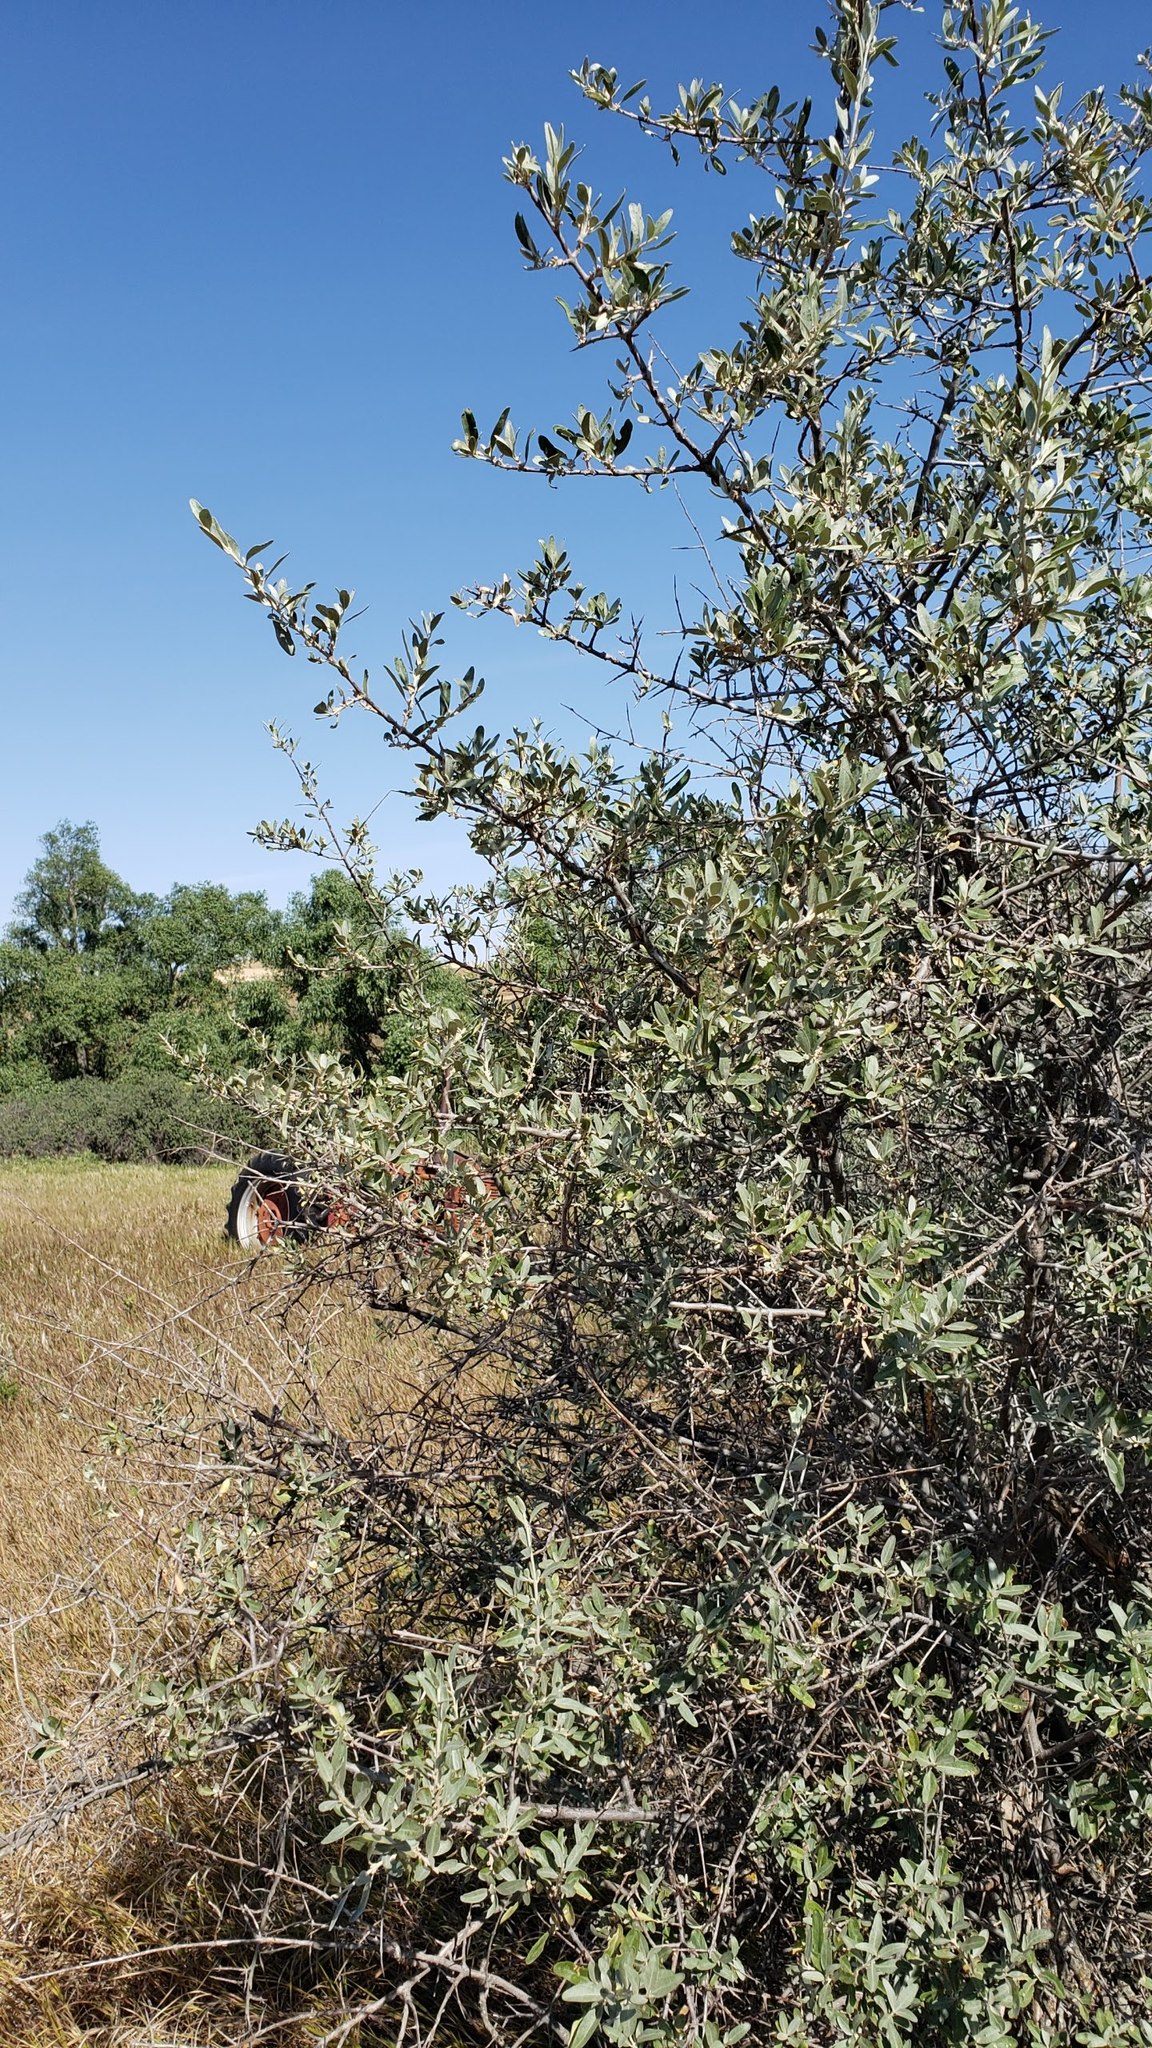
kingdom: Plantae
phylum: Tracheophyta
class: Magnoliopsida
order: Rosales
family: Elaeagnaceae
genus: Shepherdia
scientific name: Shepherdia argentea
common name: Silver buffaloberry
